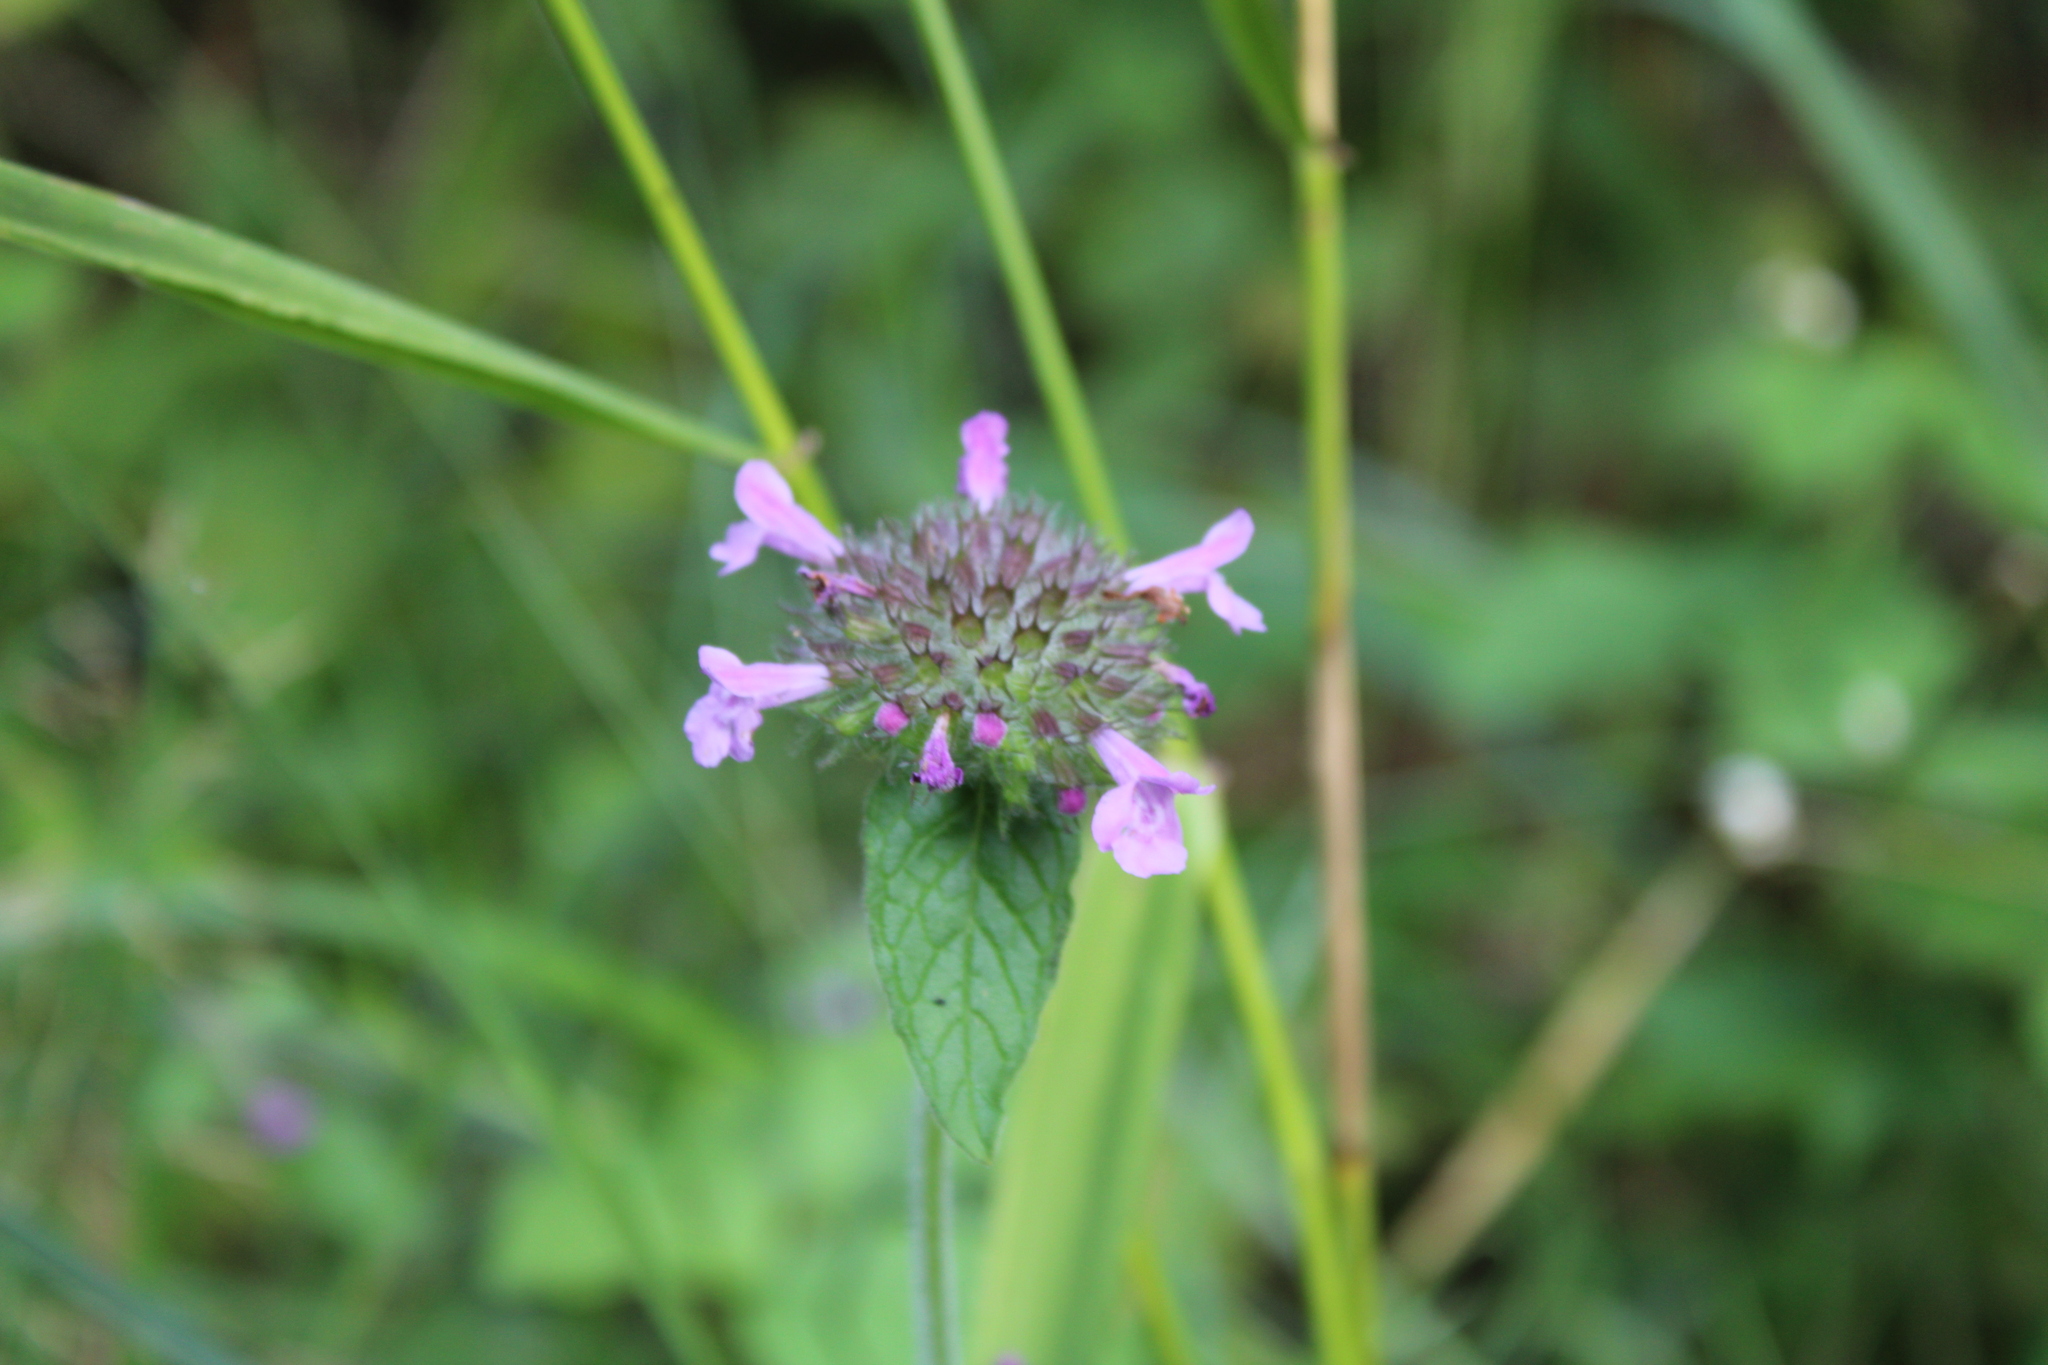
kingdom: Plantae
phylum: Tracheophyta
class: Magnoliopsida
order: Lamiales
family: Lamiaceae
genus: Clinopodium
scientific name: Clinopodium vulgare
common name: Wild basil
